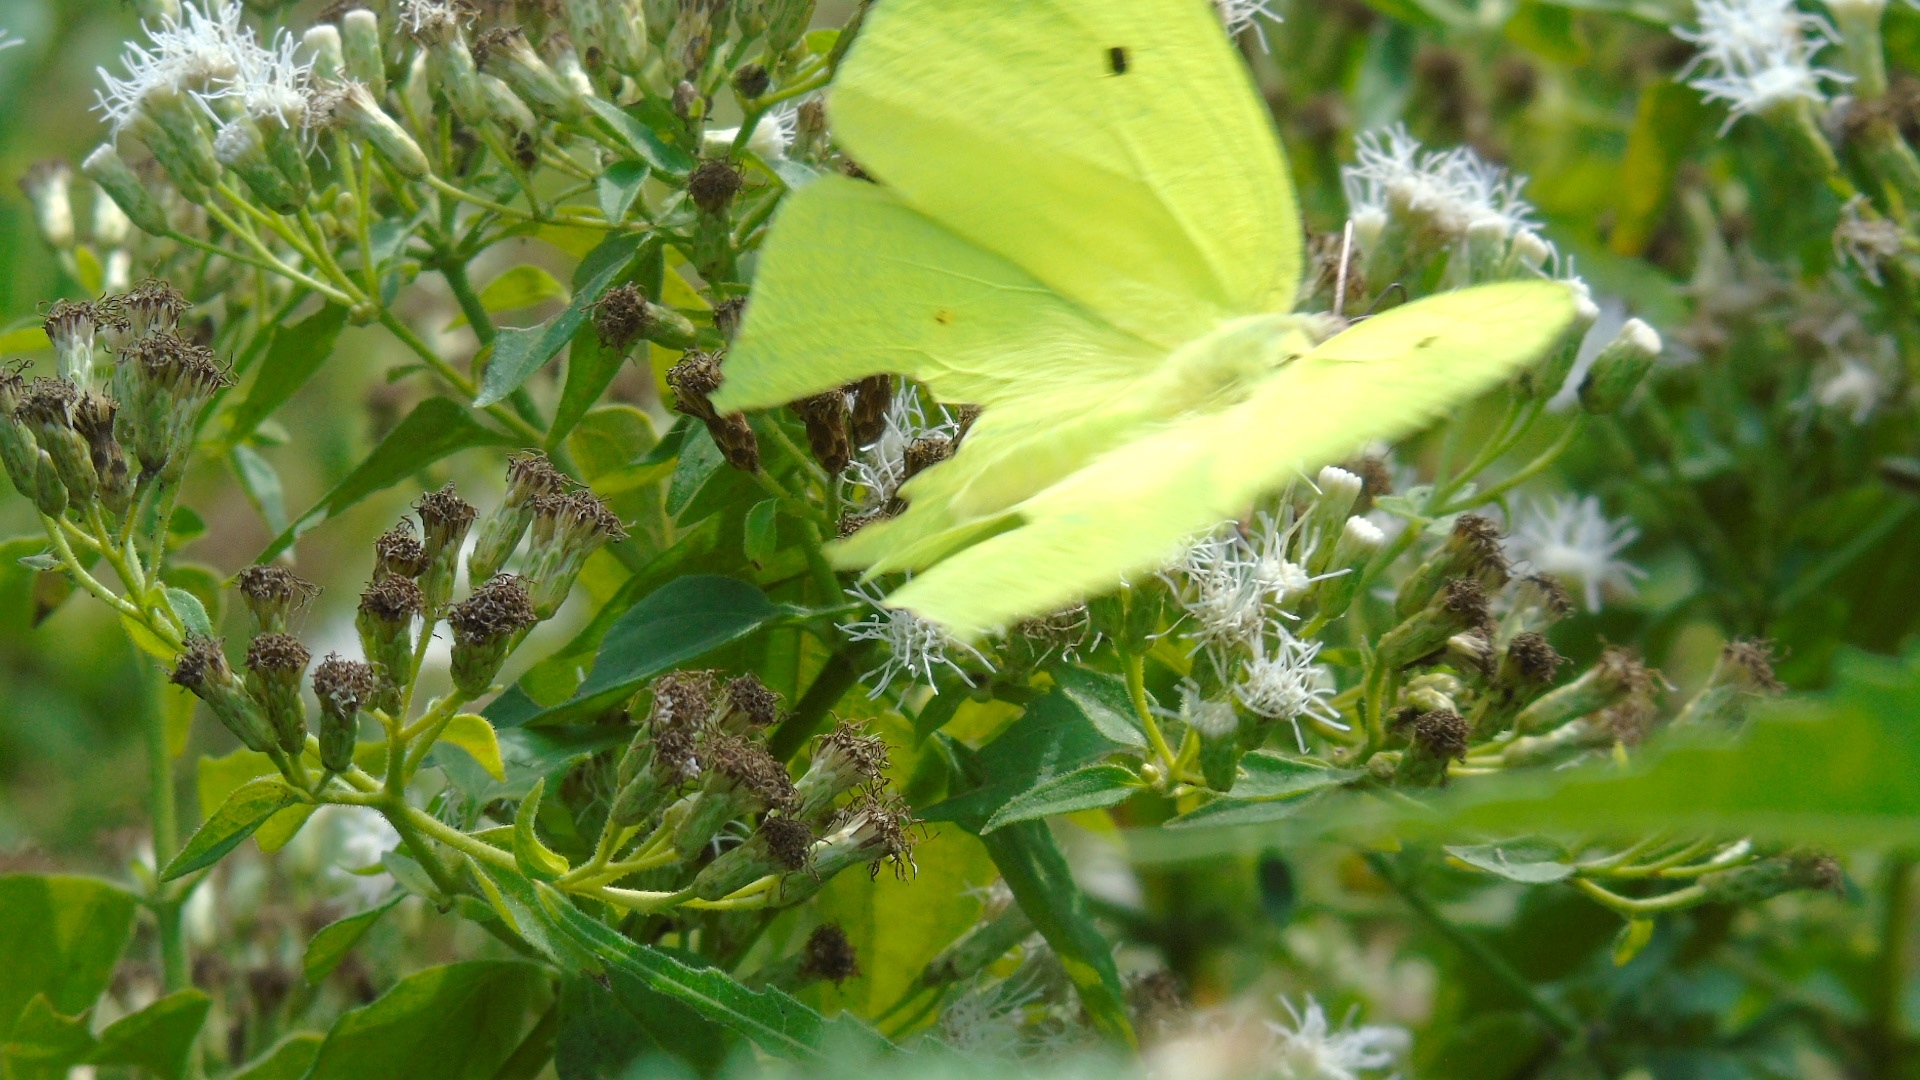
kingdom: Animalia
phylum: Arthropoda
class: Insecta
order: Lepidoptera
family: Pieridae
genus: Anteos
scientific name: Anteos maerula
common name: Angled sulphur
